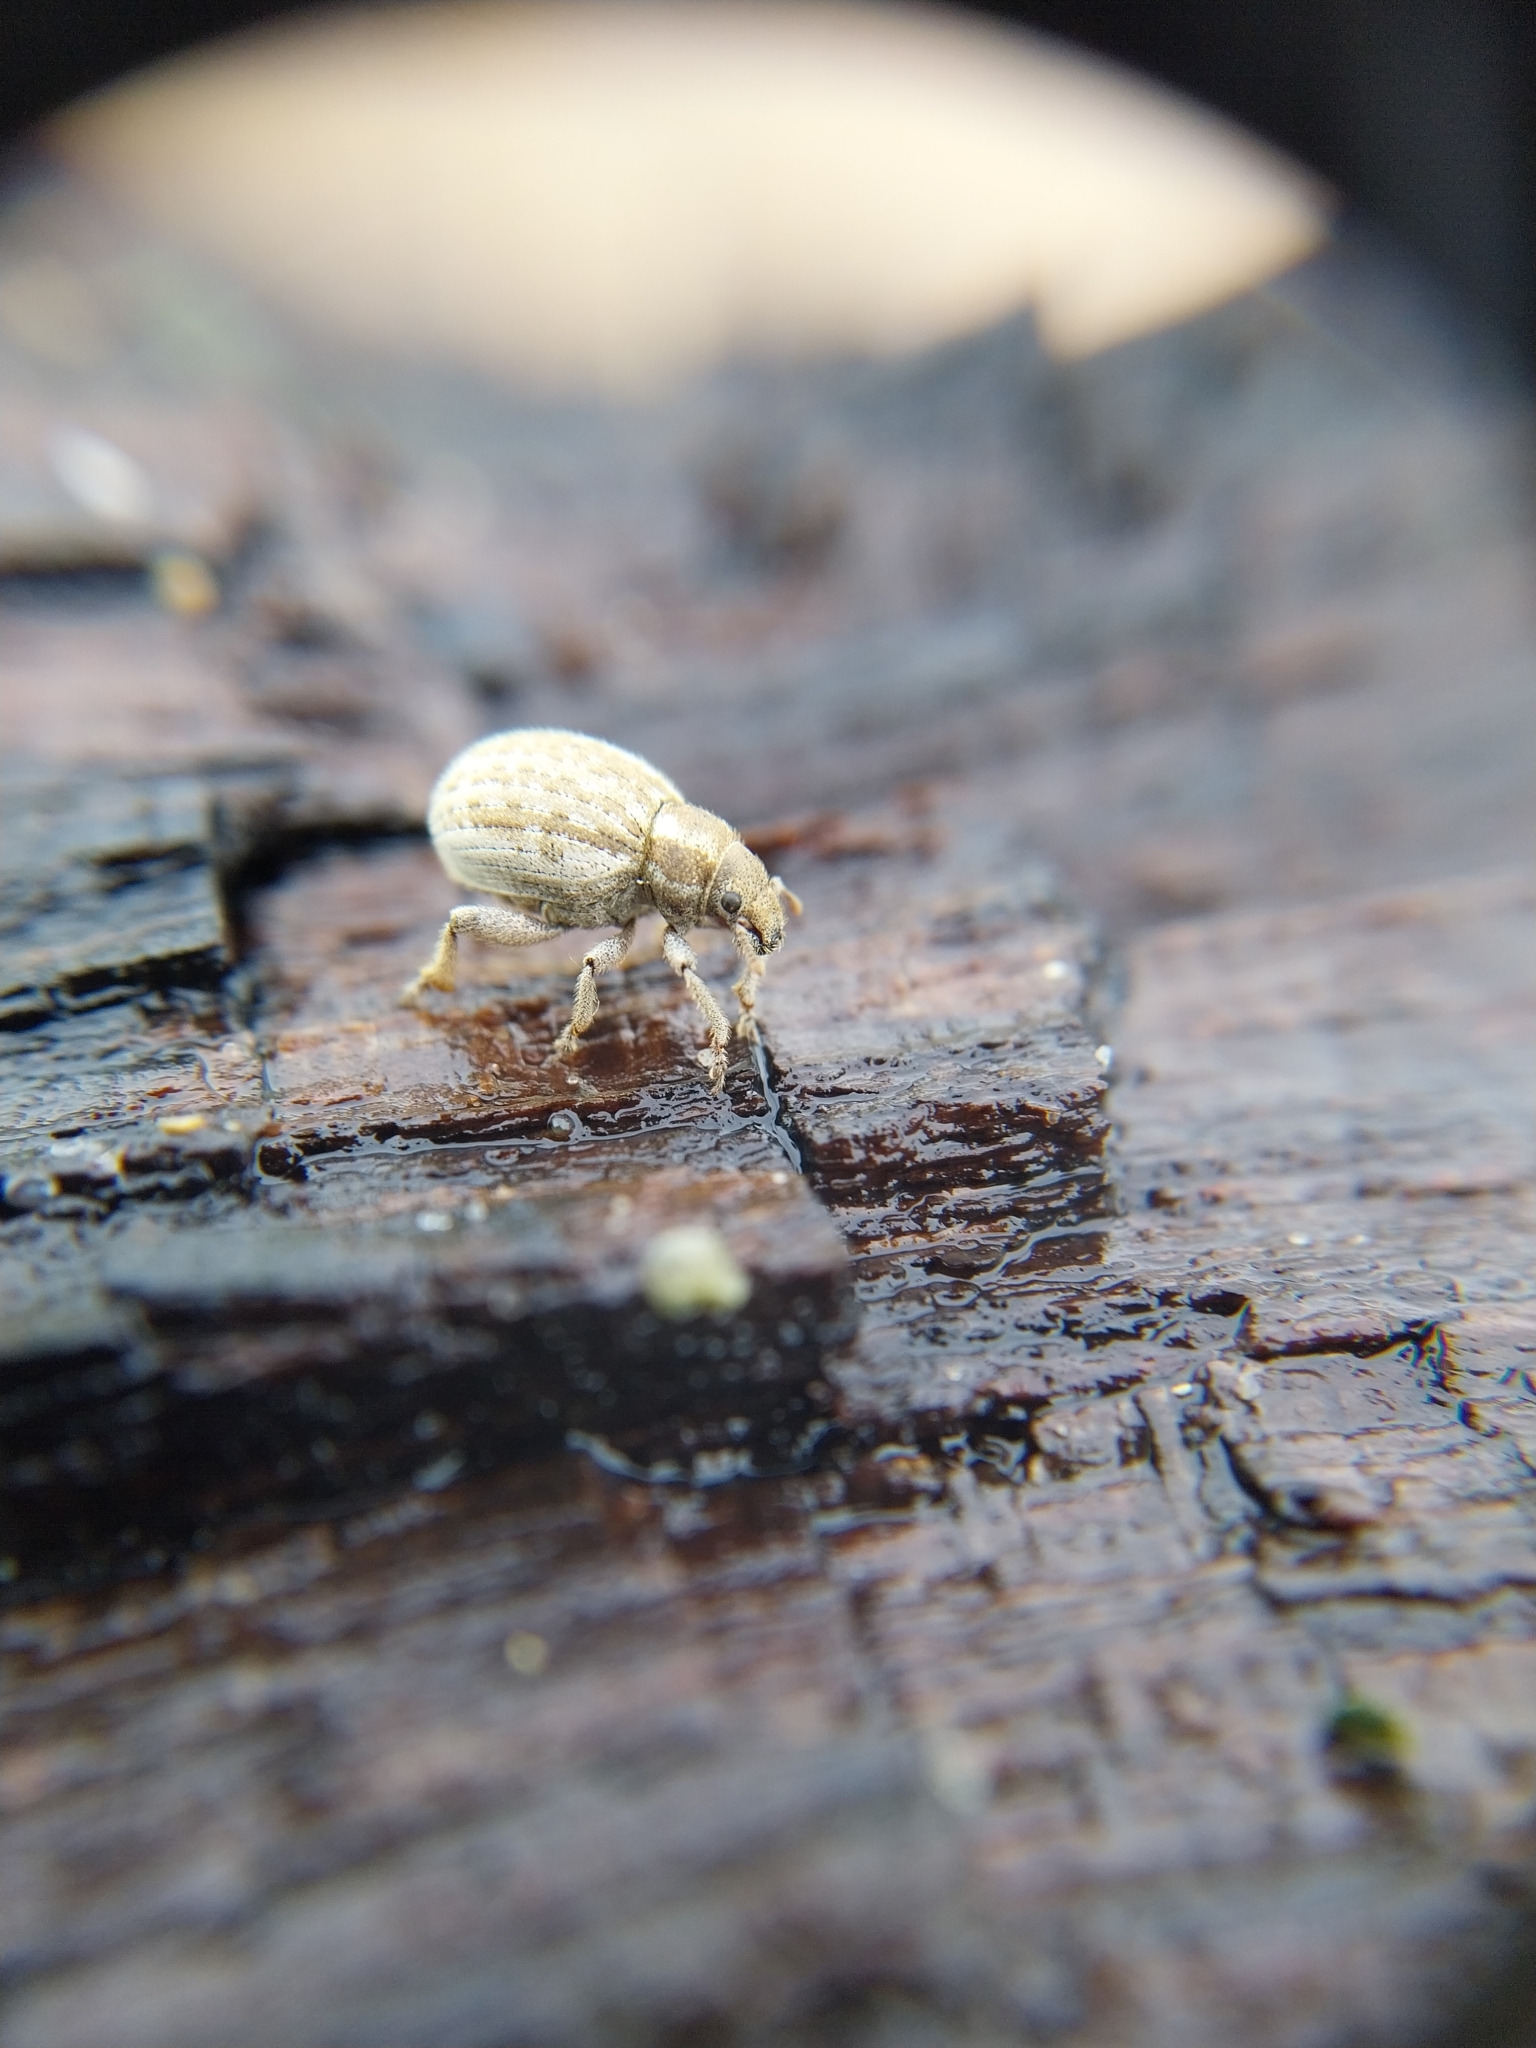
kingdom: Animalia
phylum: Arthropoda
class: Insecta
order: Coleoptera
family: Curculionidae
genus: Philopedon
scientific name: Philopedon plagiatum
